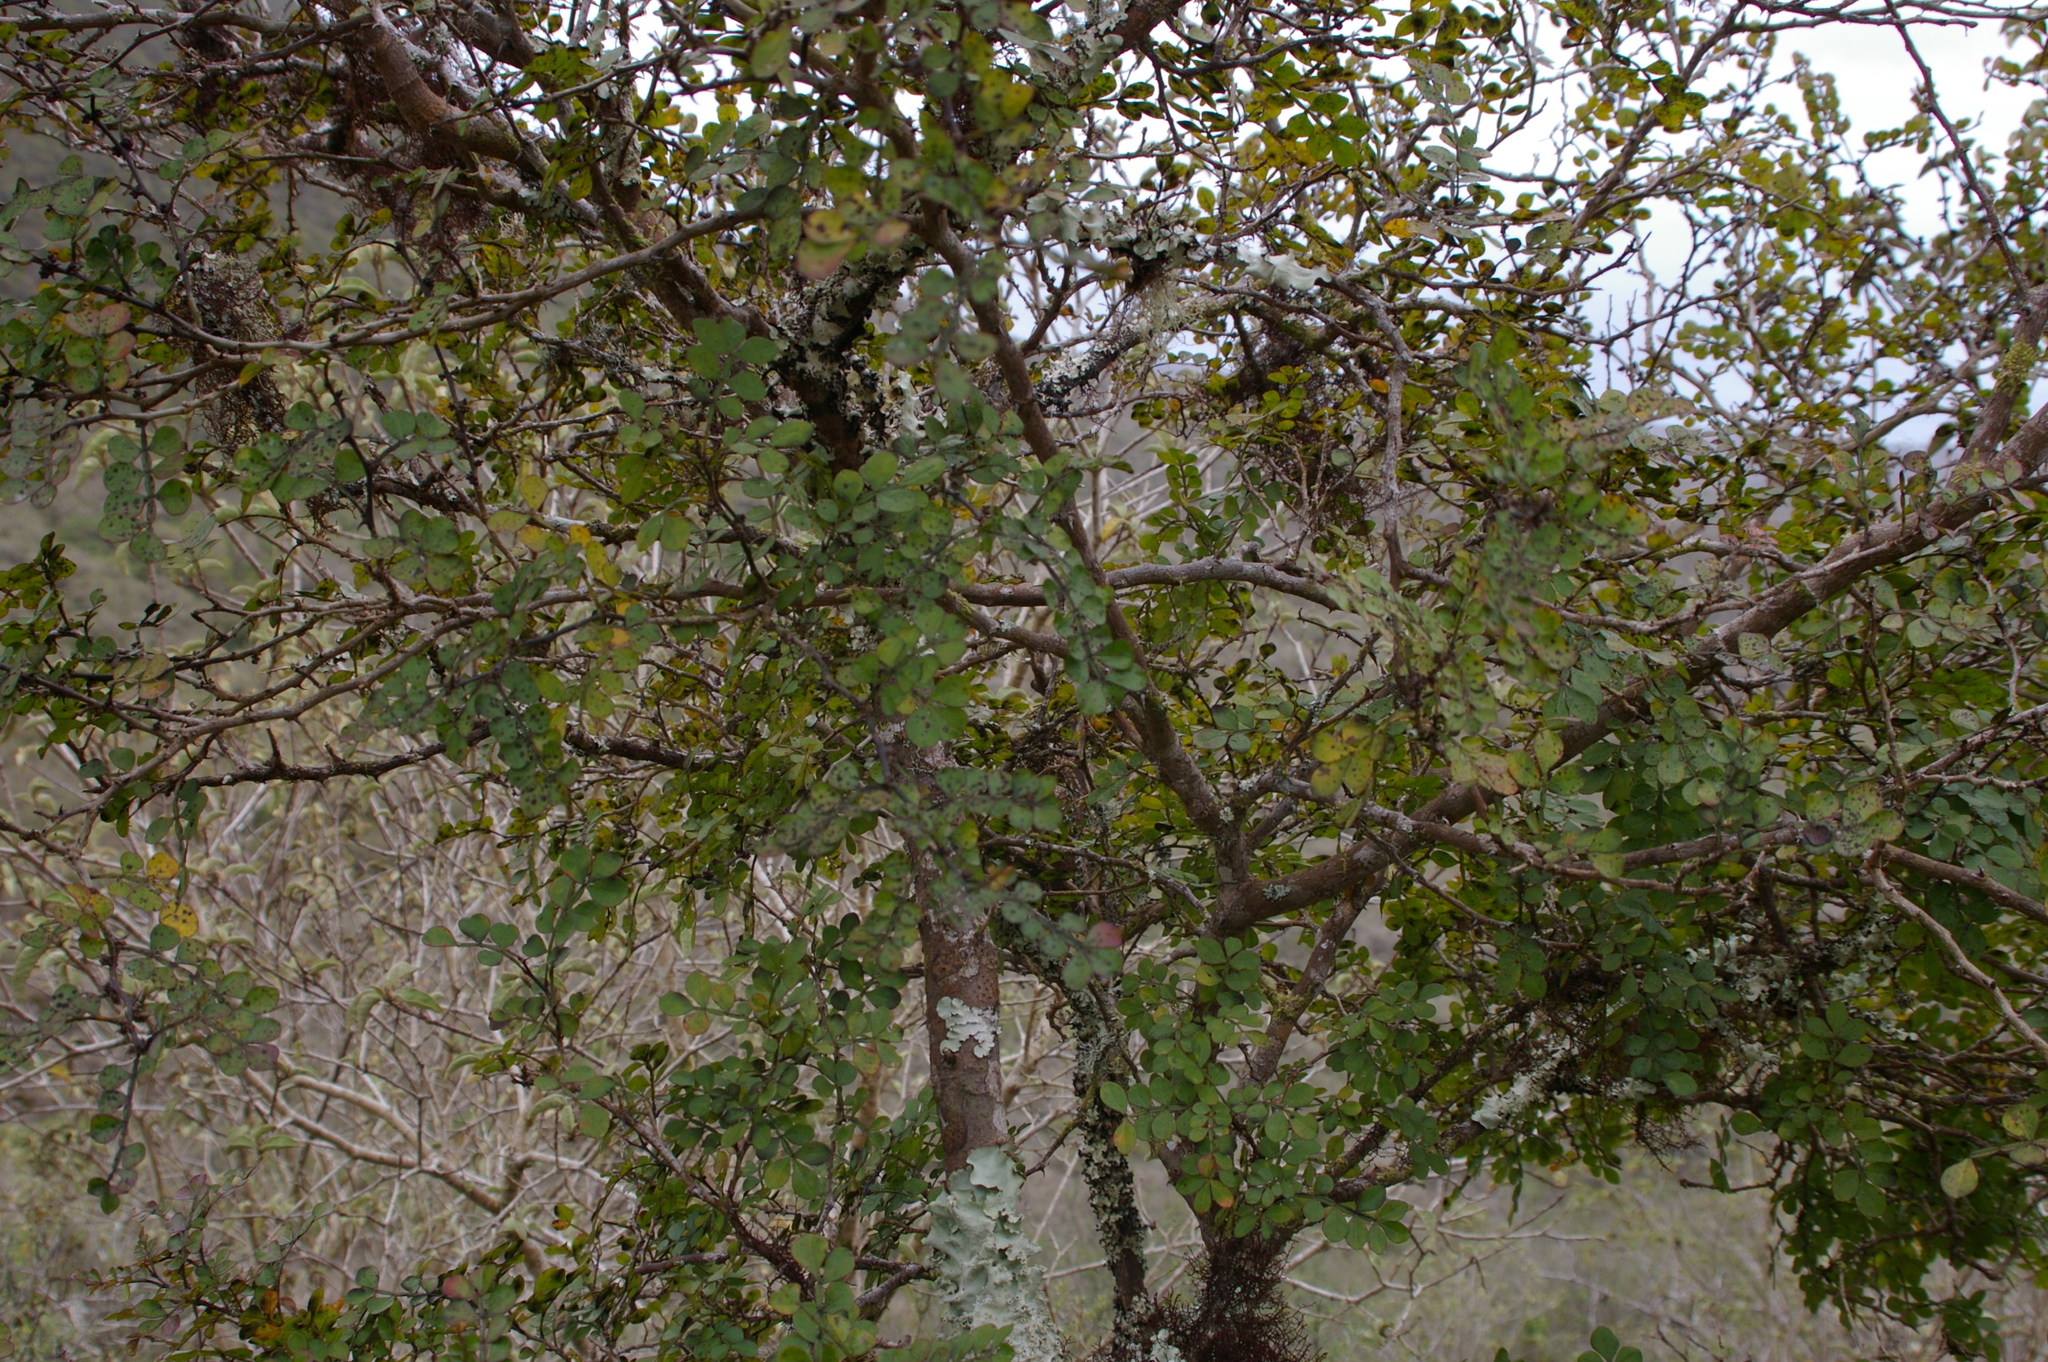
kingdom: Plantae
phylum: Tracheophyta
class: Magnoliopsida
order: Sapindales
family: Rutaceae
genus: Zanthoxylum
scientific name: Zanthoxylum fagara
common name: Lime prickly-ash
